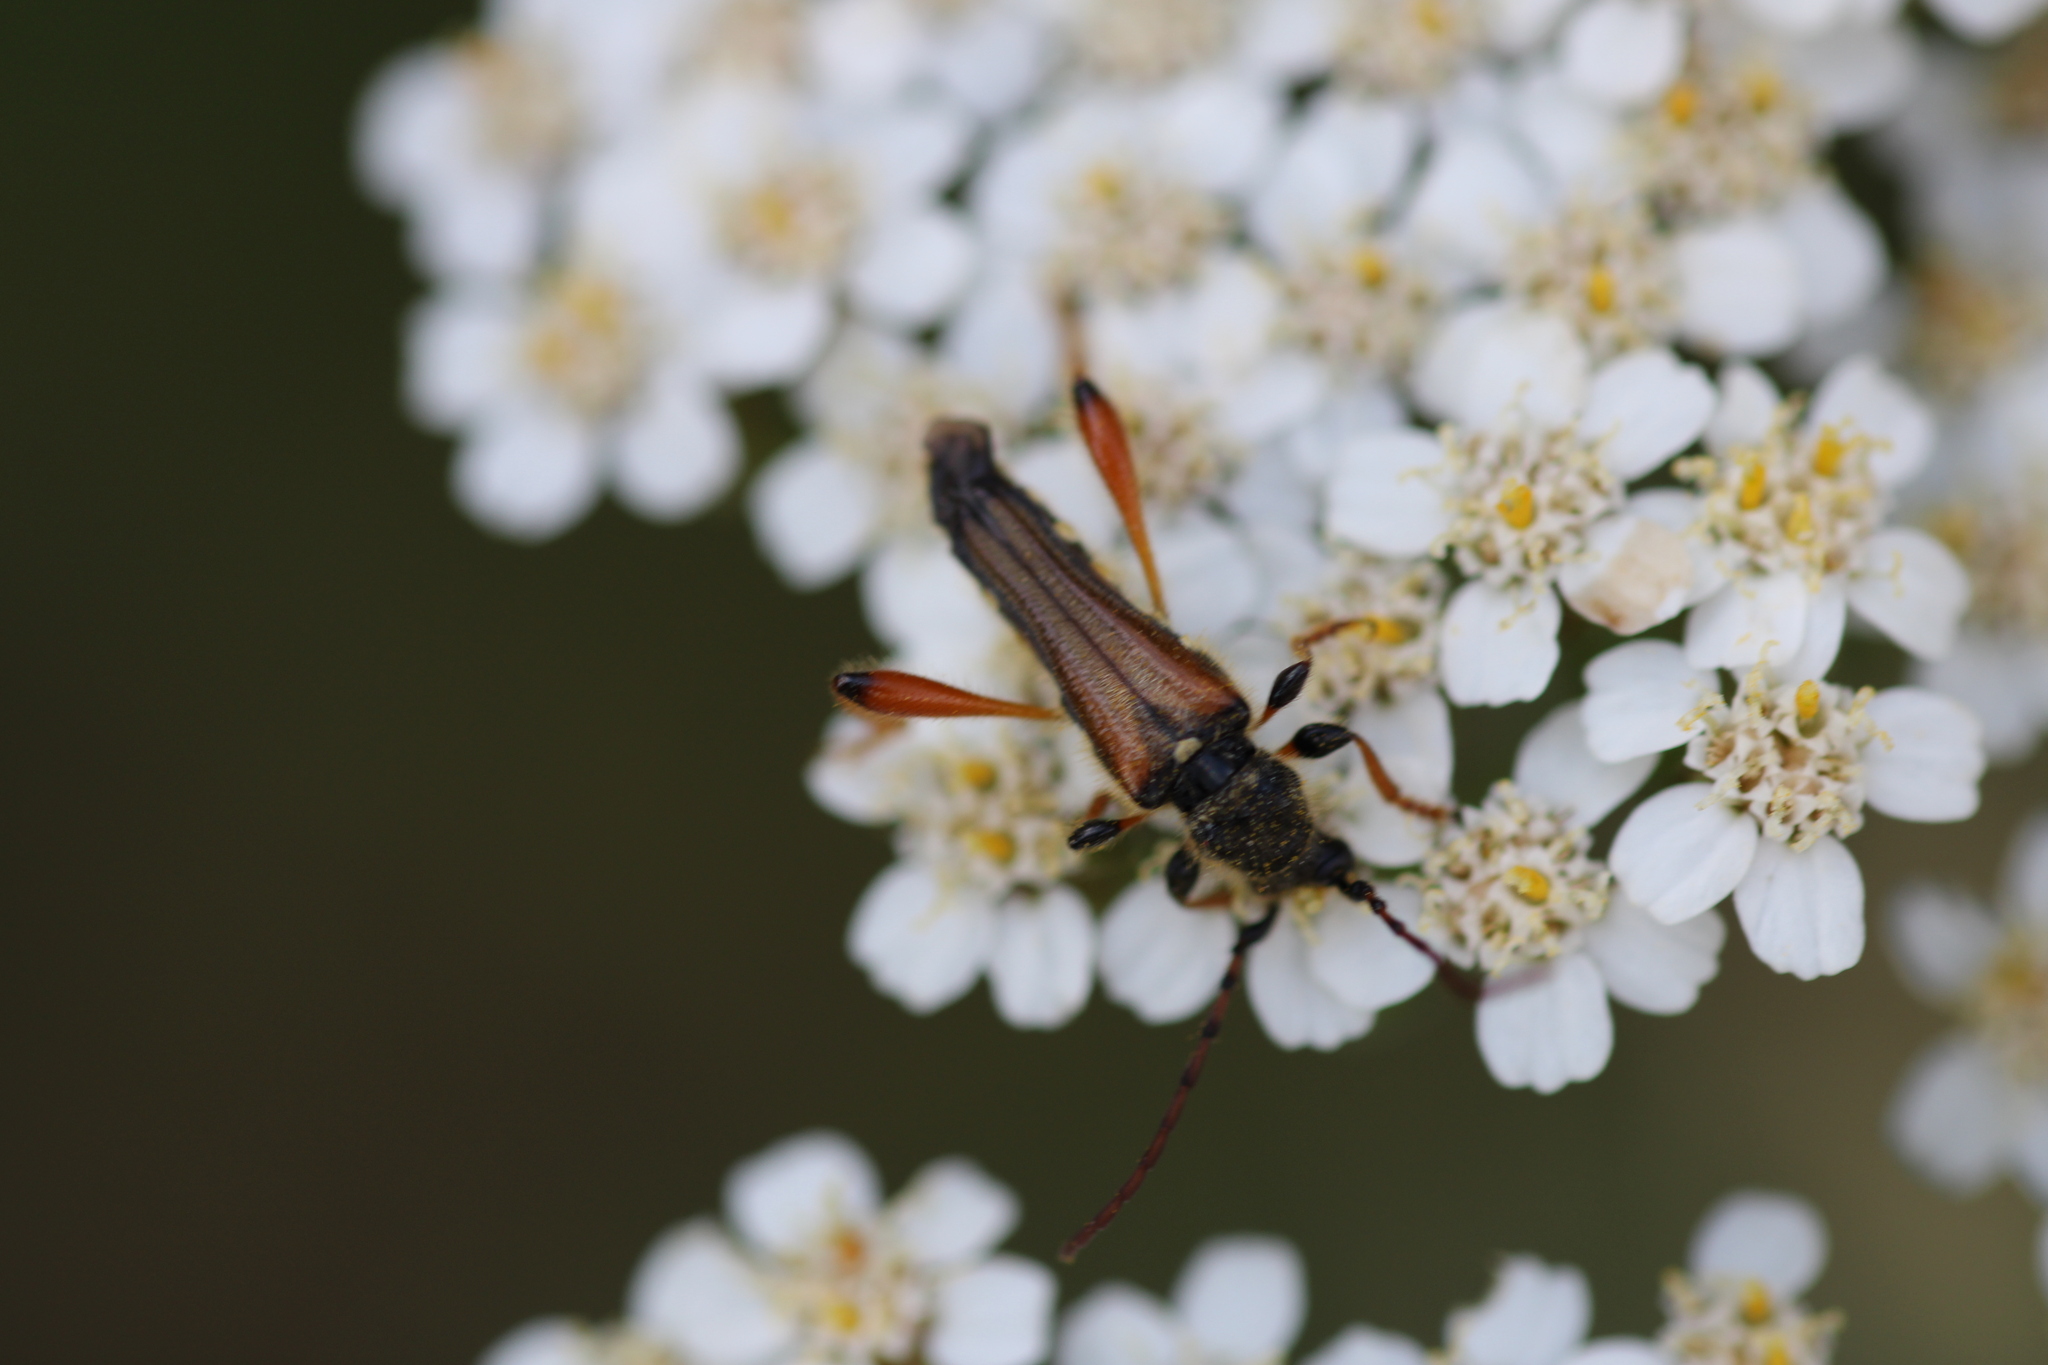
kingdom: Animalia
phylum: Arthropoda
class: Insecta
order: Coleoptera
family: Cerambycidae
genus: Stenopterus
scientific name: Stenopterus rufus
